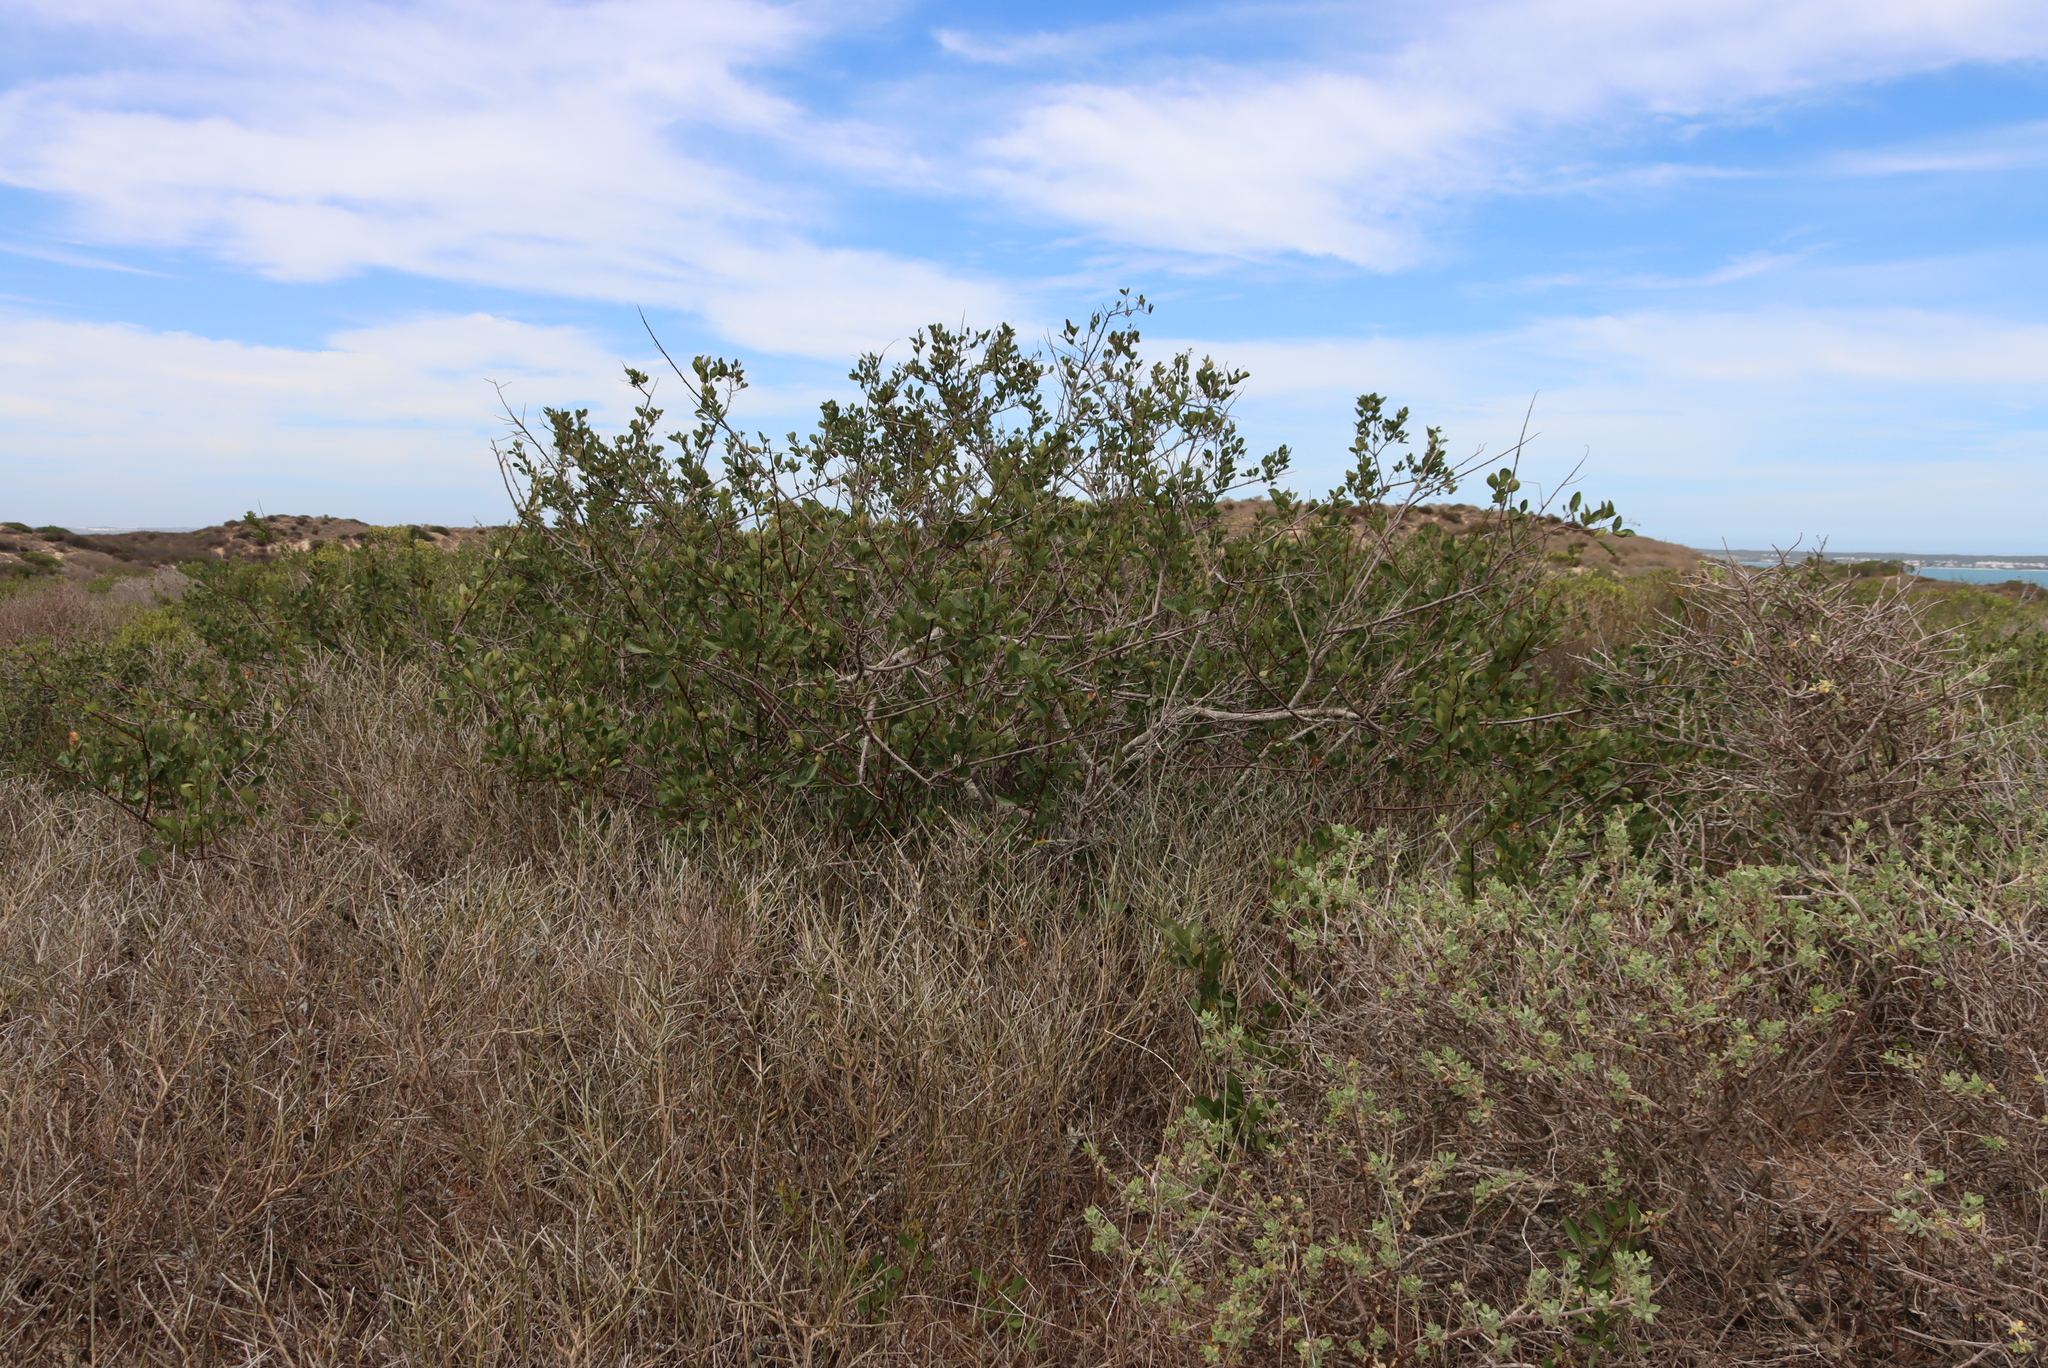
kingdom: Plantae
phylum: Tracheophyta
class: Magnoliopsida
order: Sapindales
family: Anacardiaceae
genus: Searsia
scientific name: Searsia laevigata
